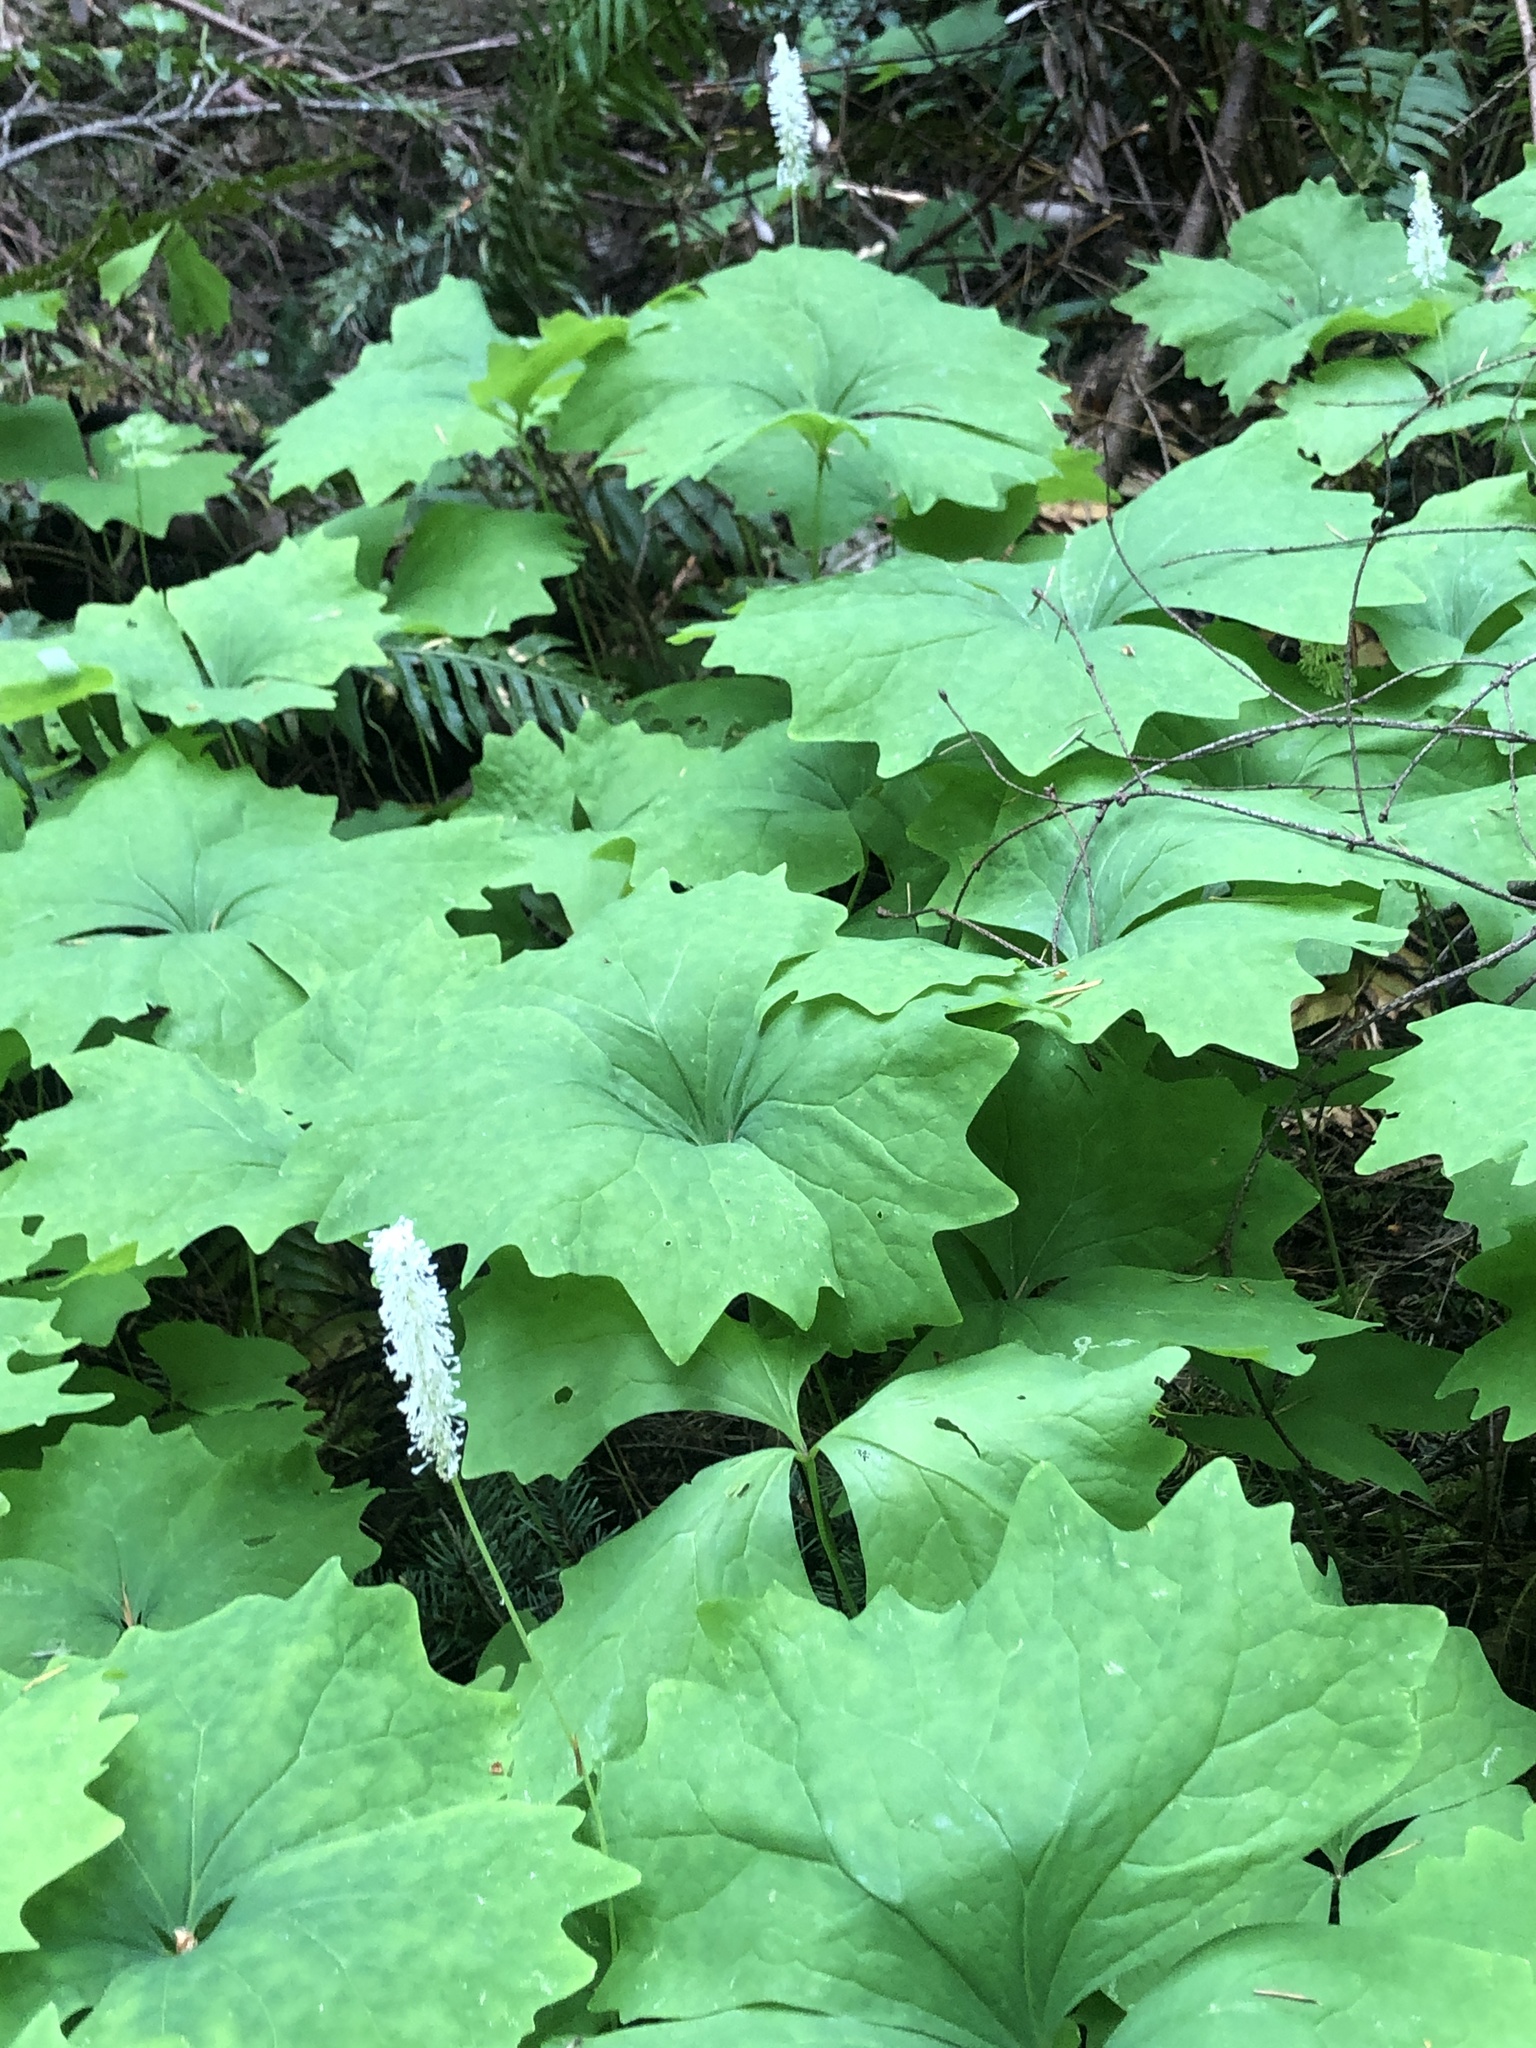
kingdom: Plantae
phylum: Tracheophyta
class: Magnoliopsida
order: Ranunculales
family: Berberidaceae
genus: Achlys
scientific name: Achlys triphylla
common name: Vanilla-leaf
